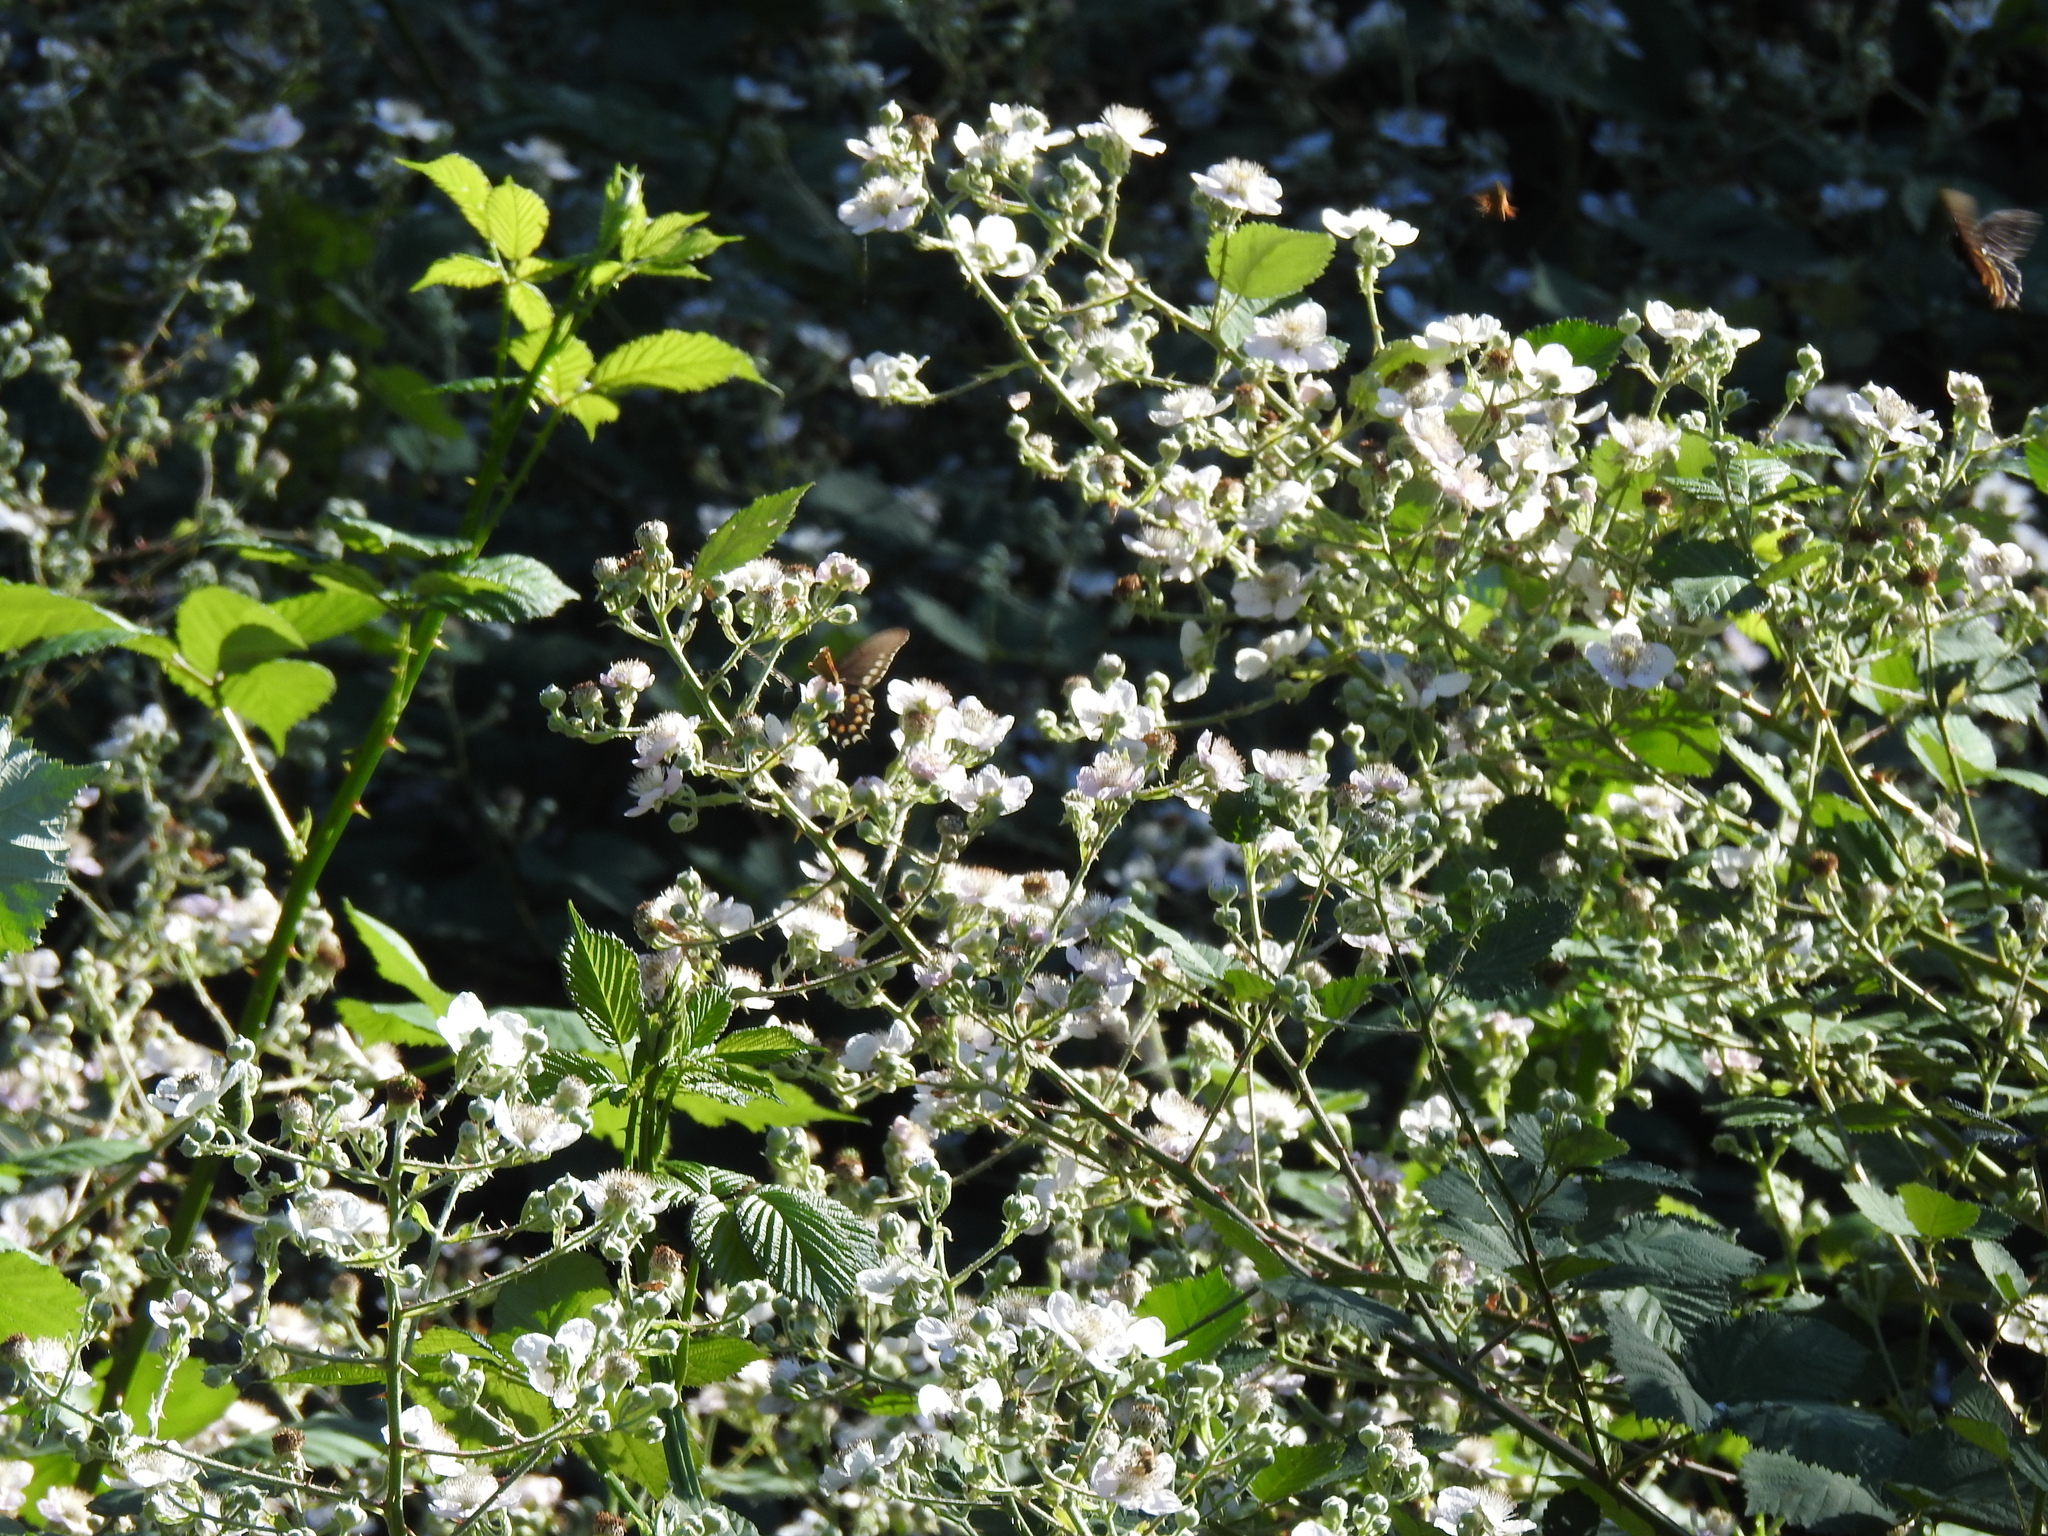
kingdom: Animalia
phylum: Arthropoda
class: Insecta
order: Lepidoptera
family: Papilionidae
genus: Battus
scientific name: Battus philenor
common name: Pipevine swallowtail
